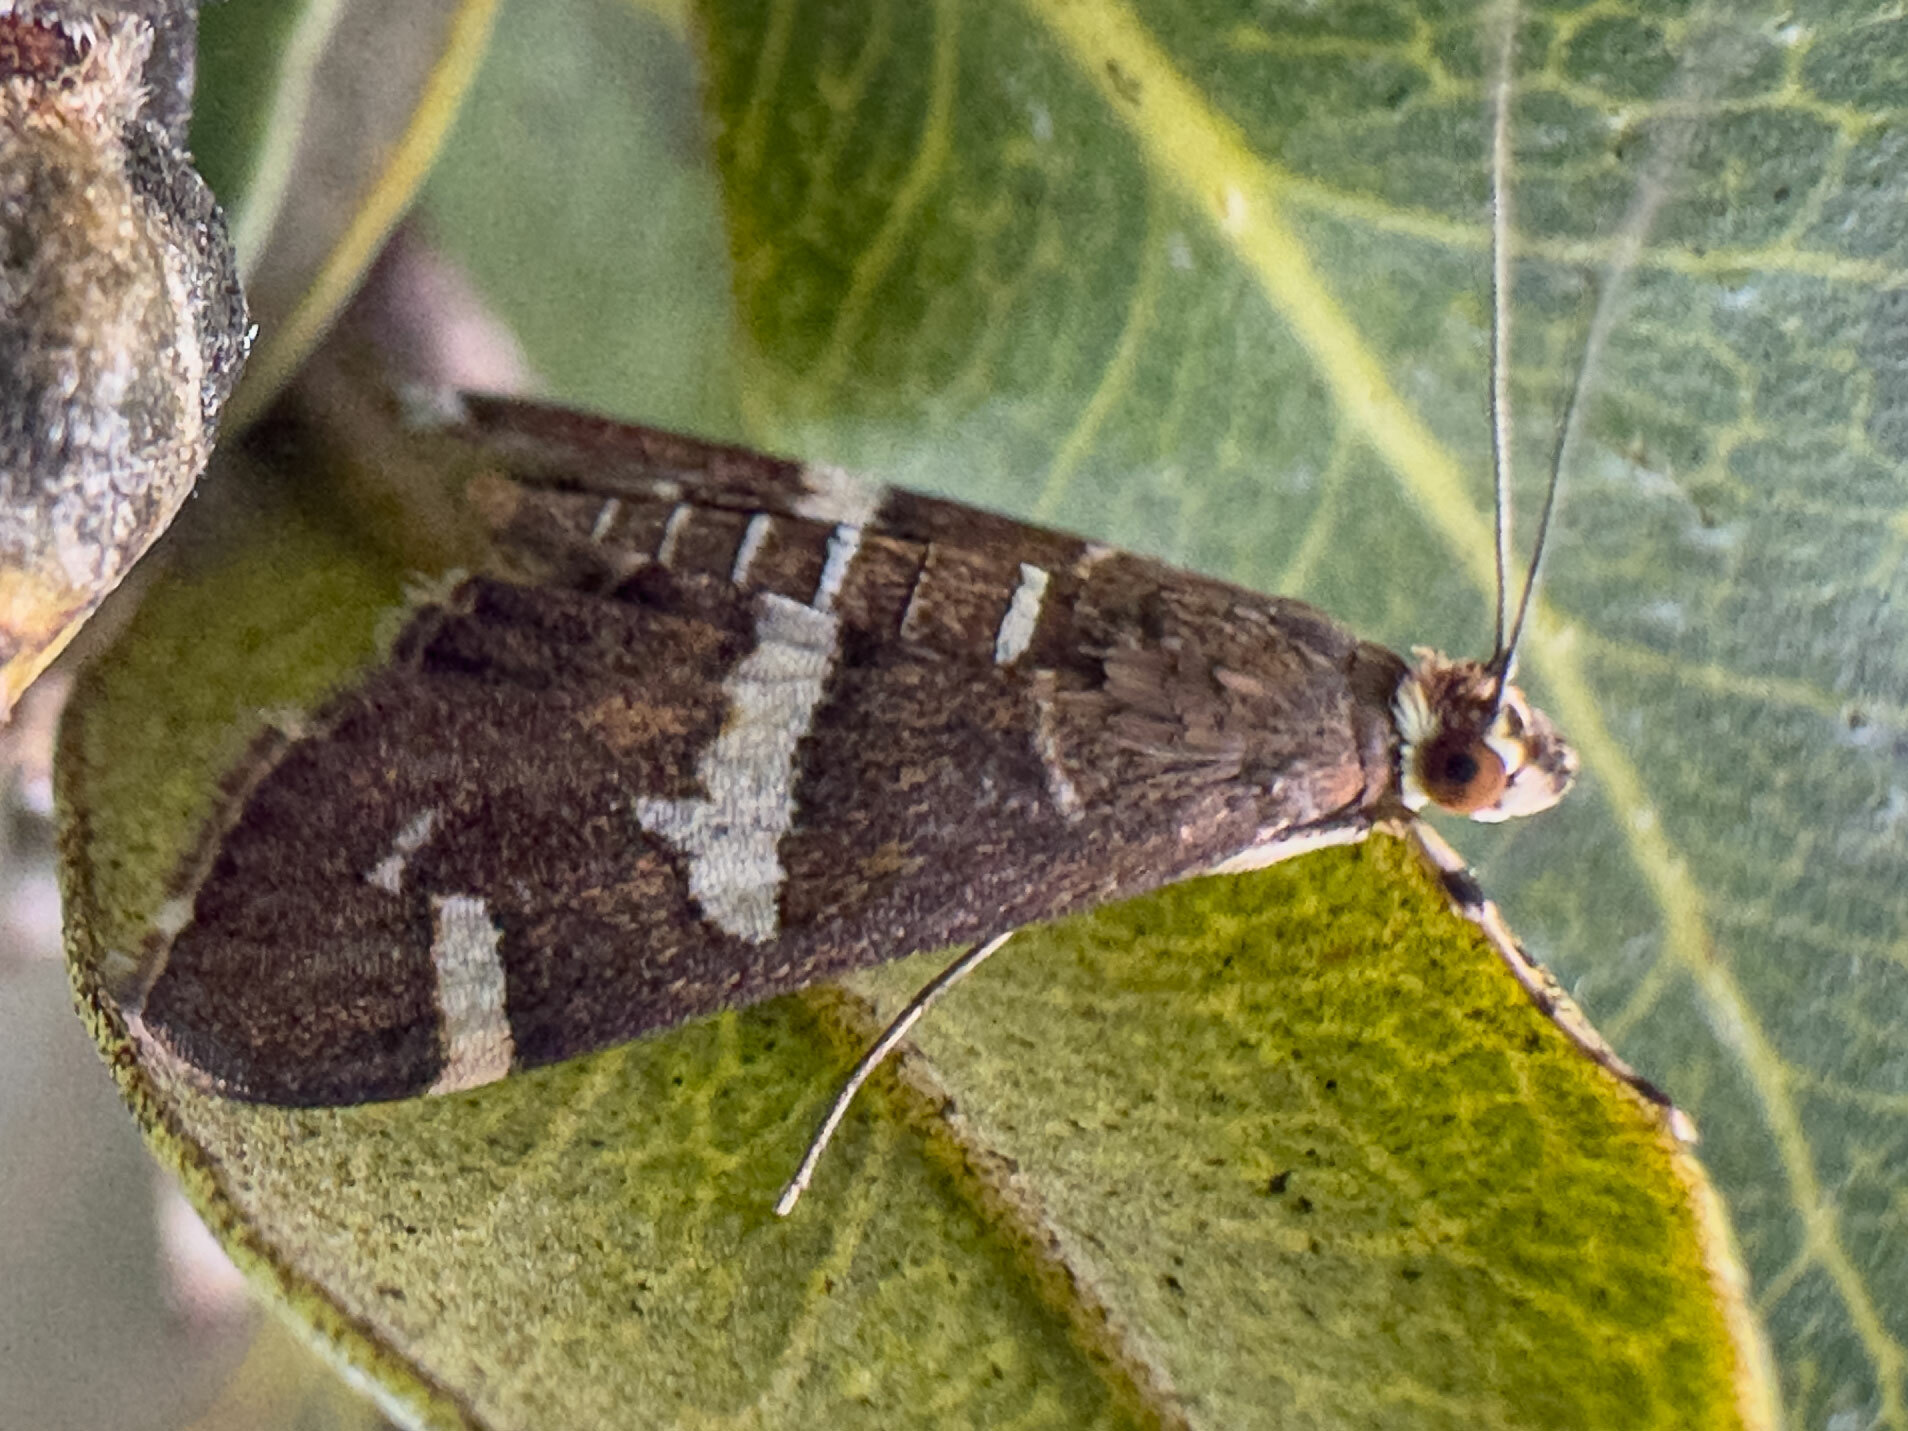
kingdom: Animalia
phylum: Arthropoda
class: Insecta
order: Lepidoptera
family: Crambidae
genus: Spoladea
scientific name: Spoladea recurvalis
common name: Beet webworm moth
